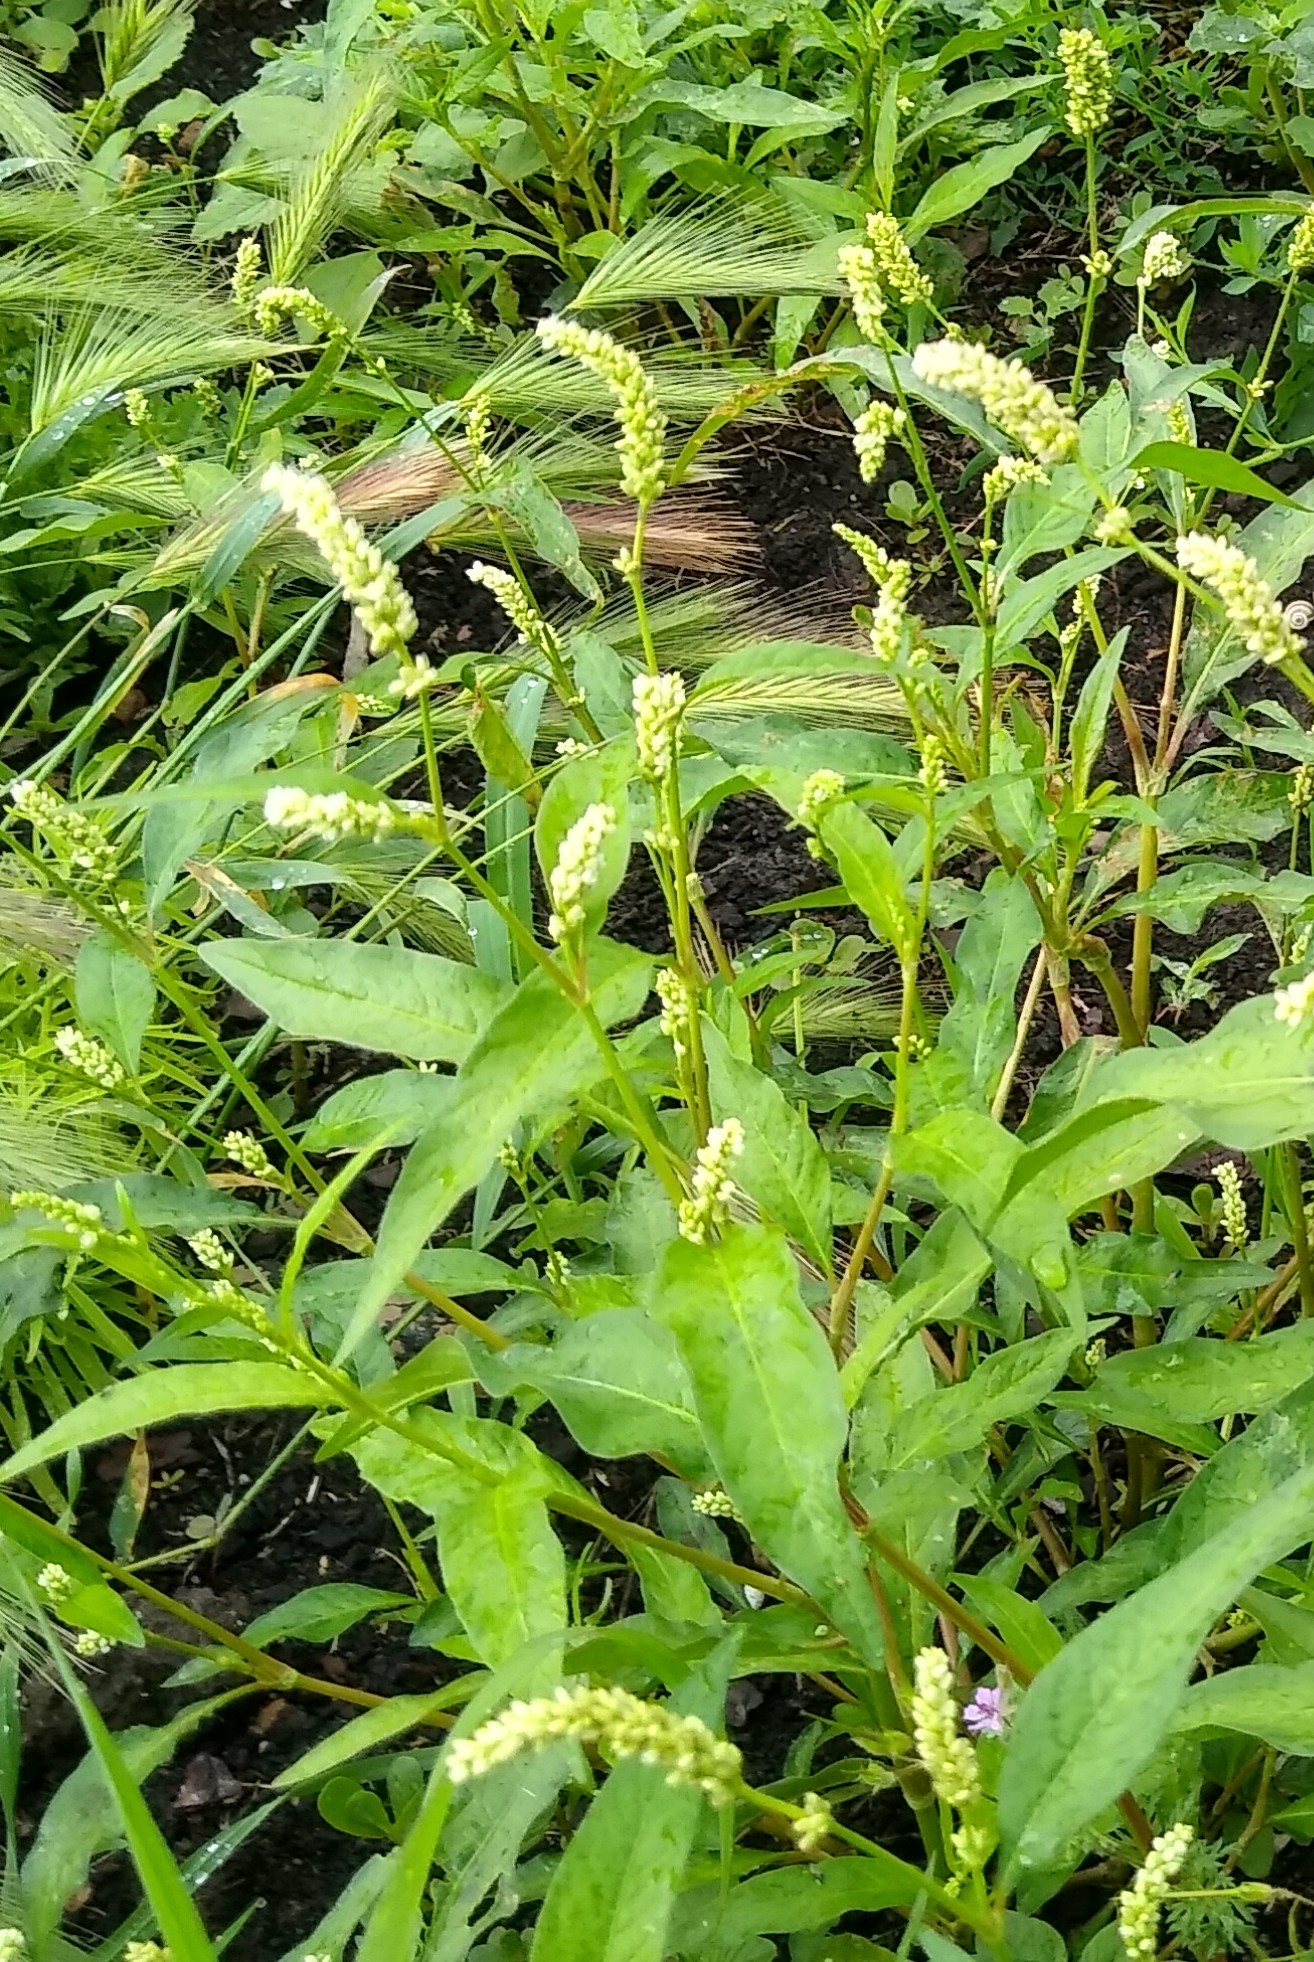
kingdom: Plantae
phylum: Tracheophyta
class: Magnoliopsida
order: Caryophyllales
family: Polygonaceae
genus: Persicaria
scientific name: Persicaria lapathifolia
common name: Curlytop knotweed
